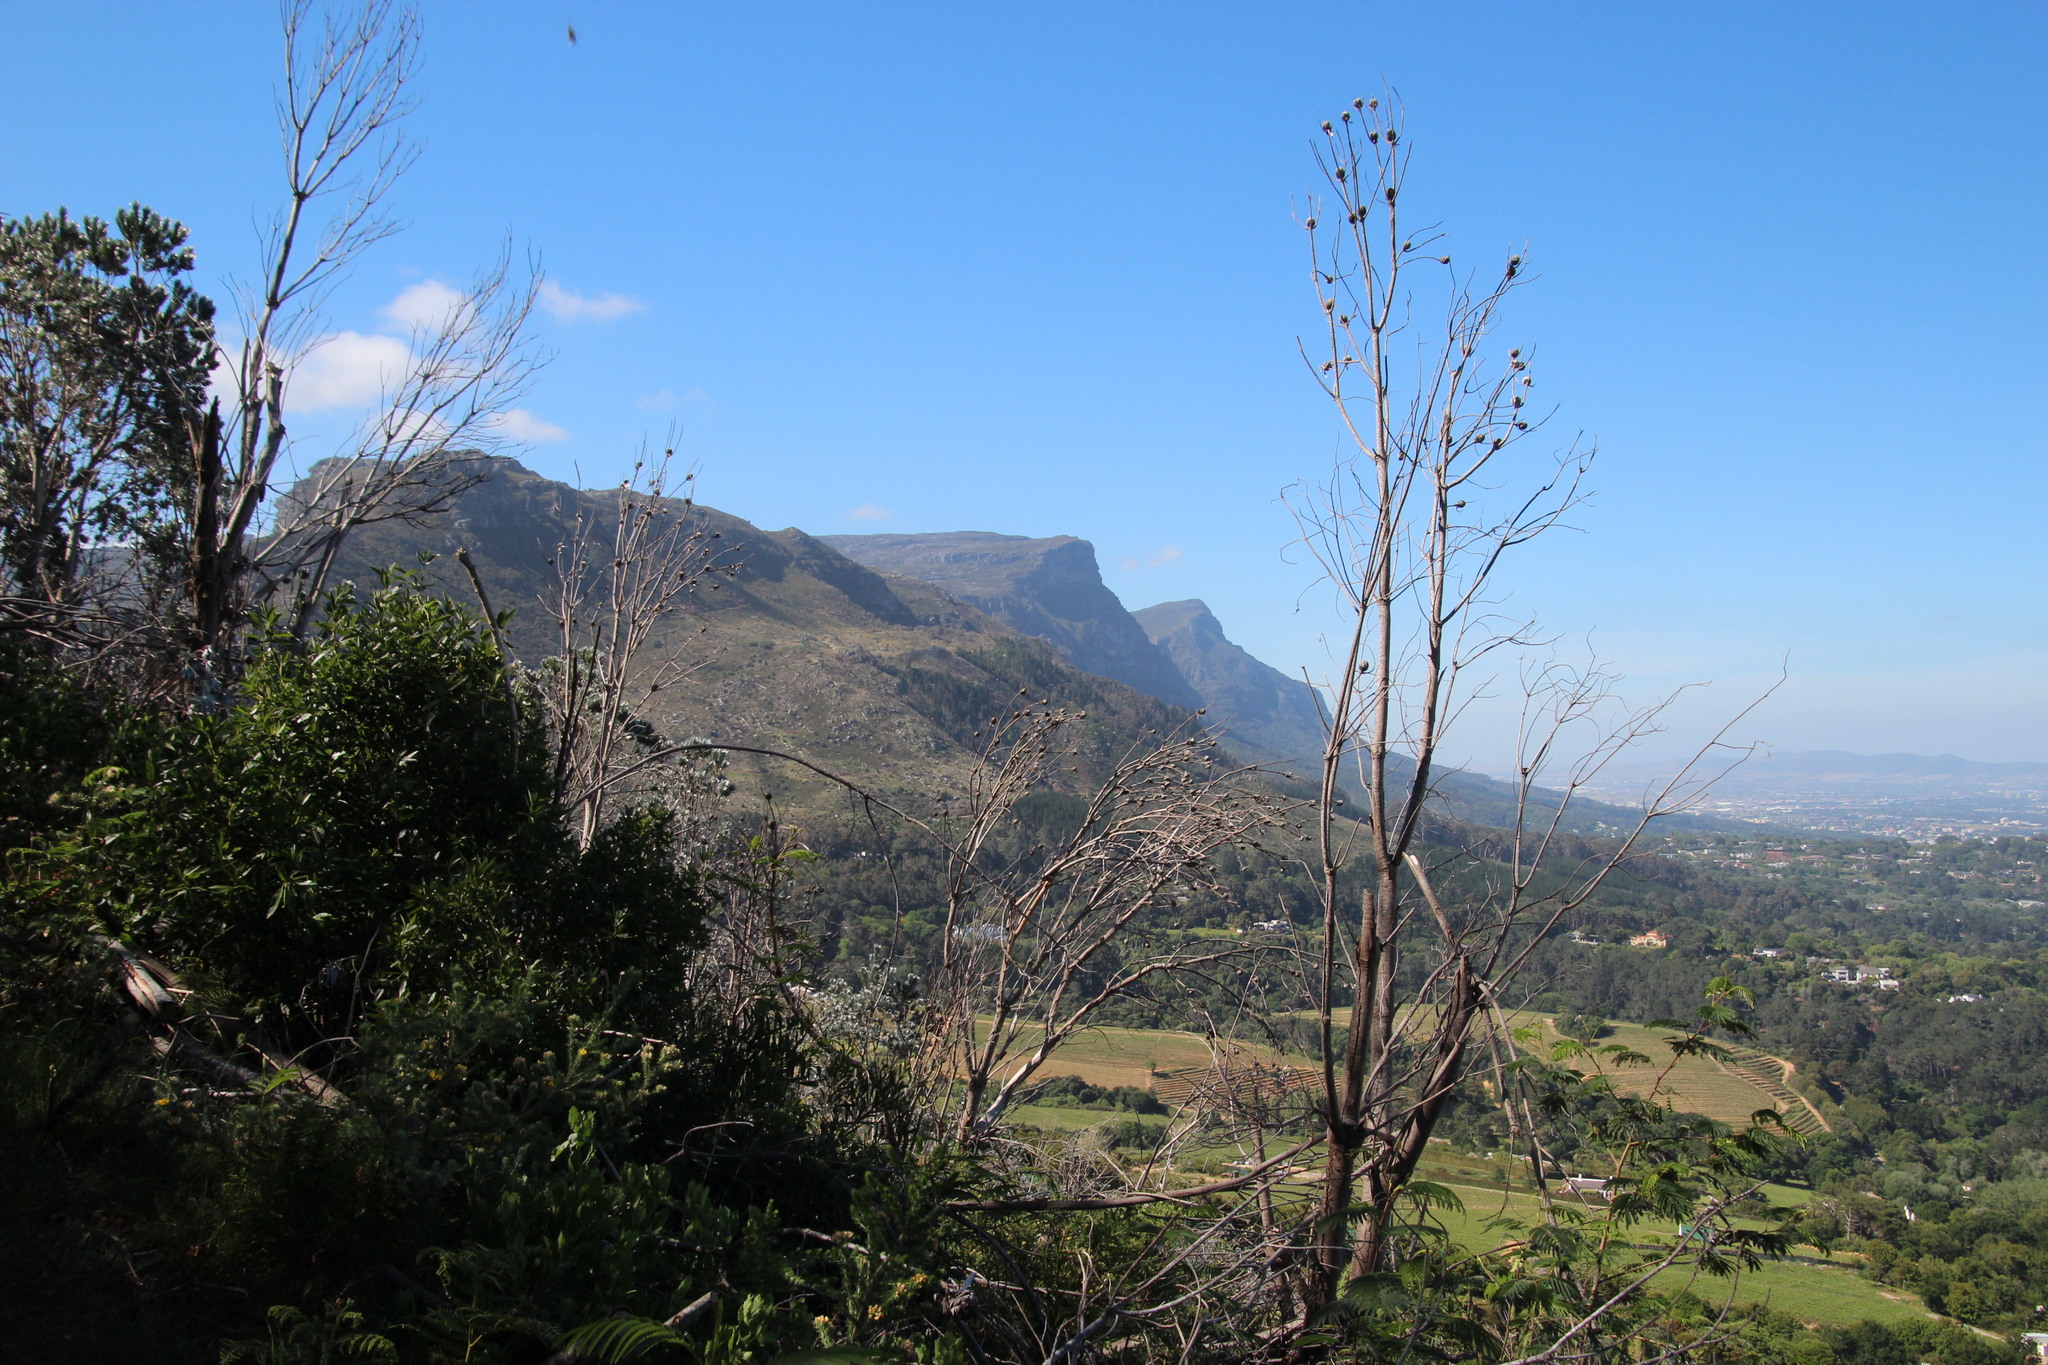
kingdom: Plantae
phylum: Tracheophyta
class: Magnoliopsida
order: Proteales
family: Proteaceae
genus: Leucadendron
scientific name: Leucadendron argenteum
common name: Cape silver tree
